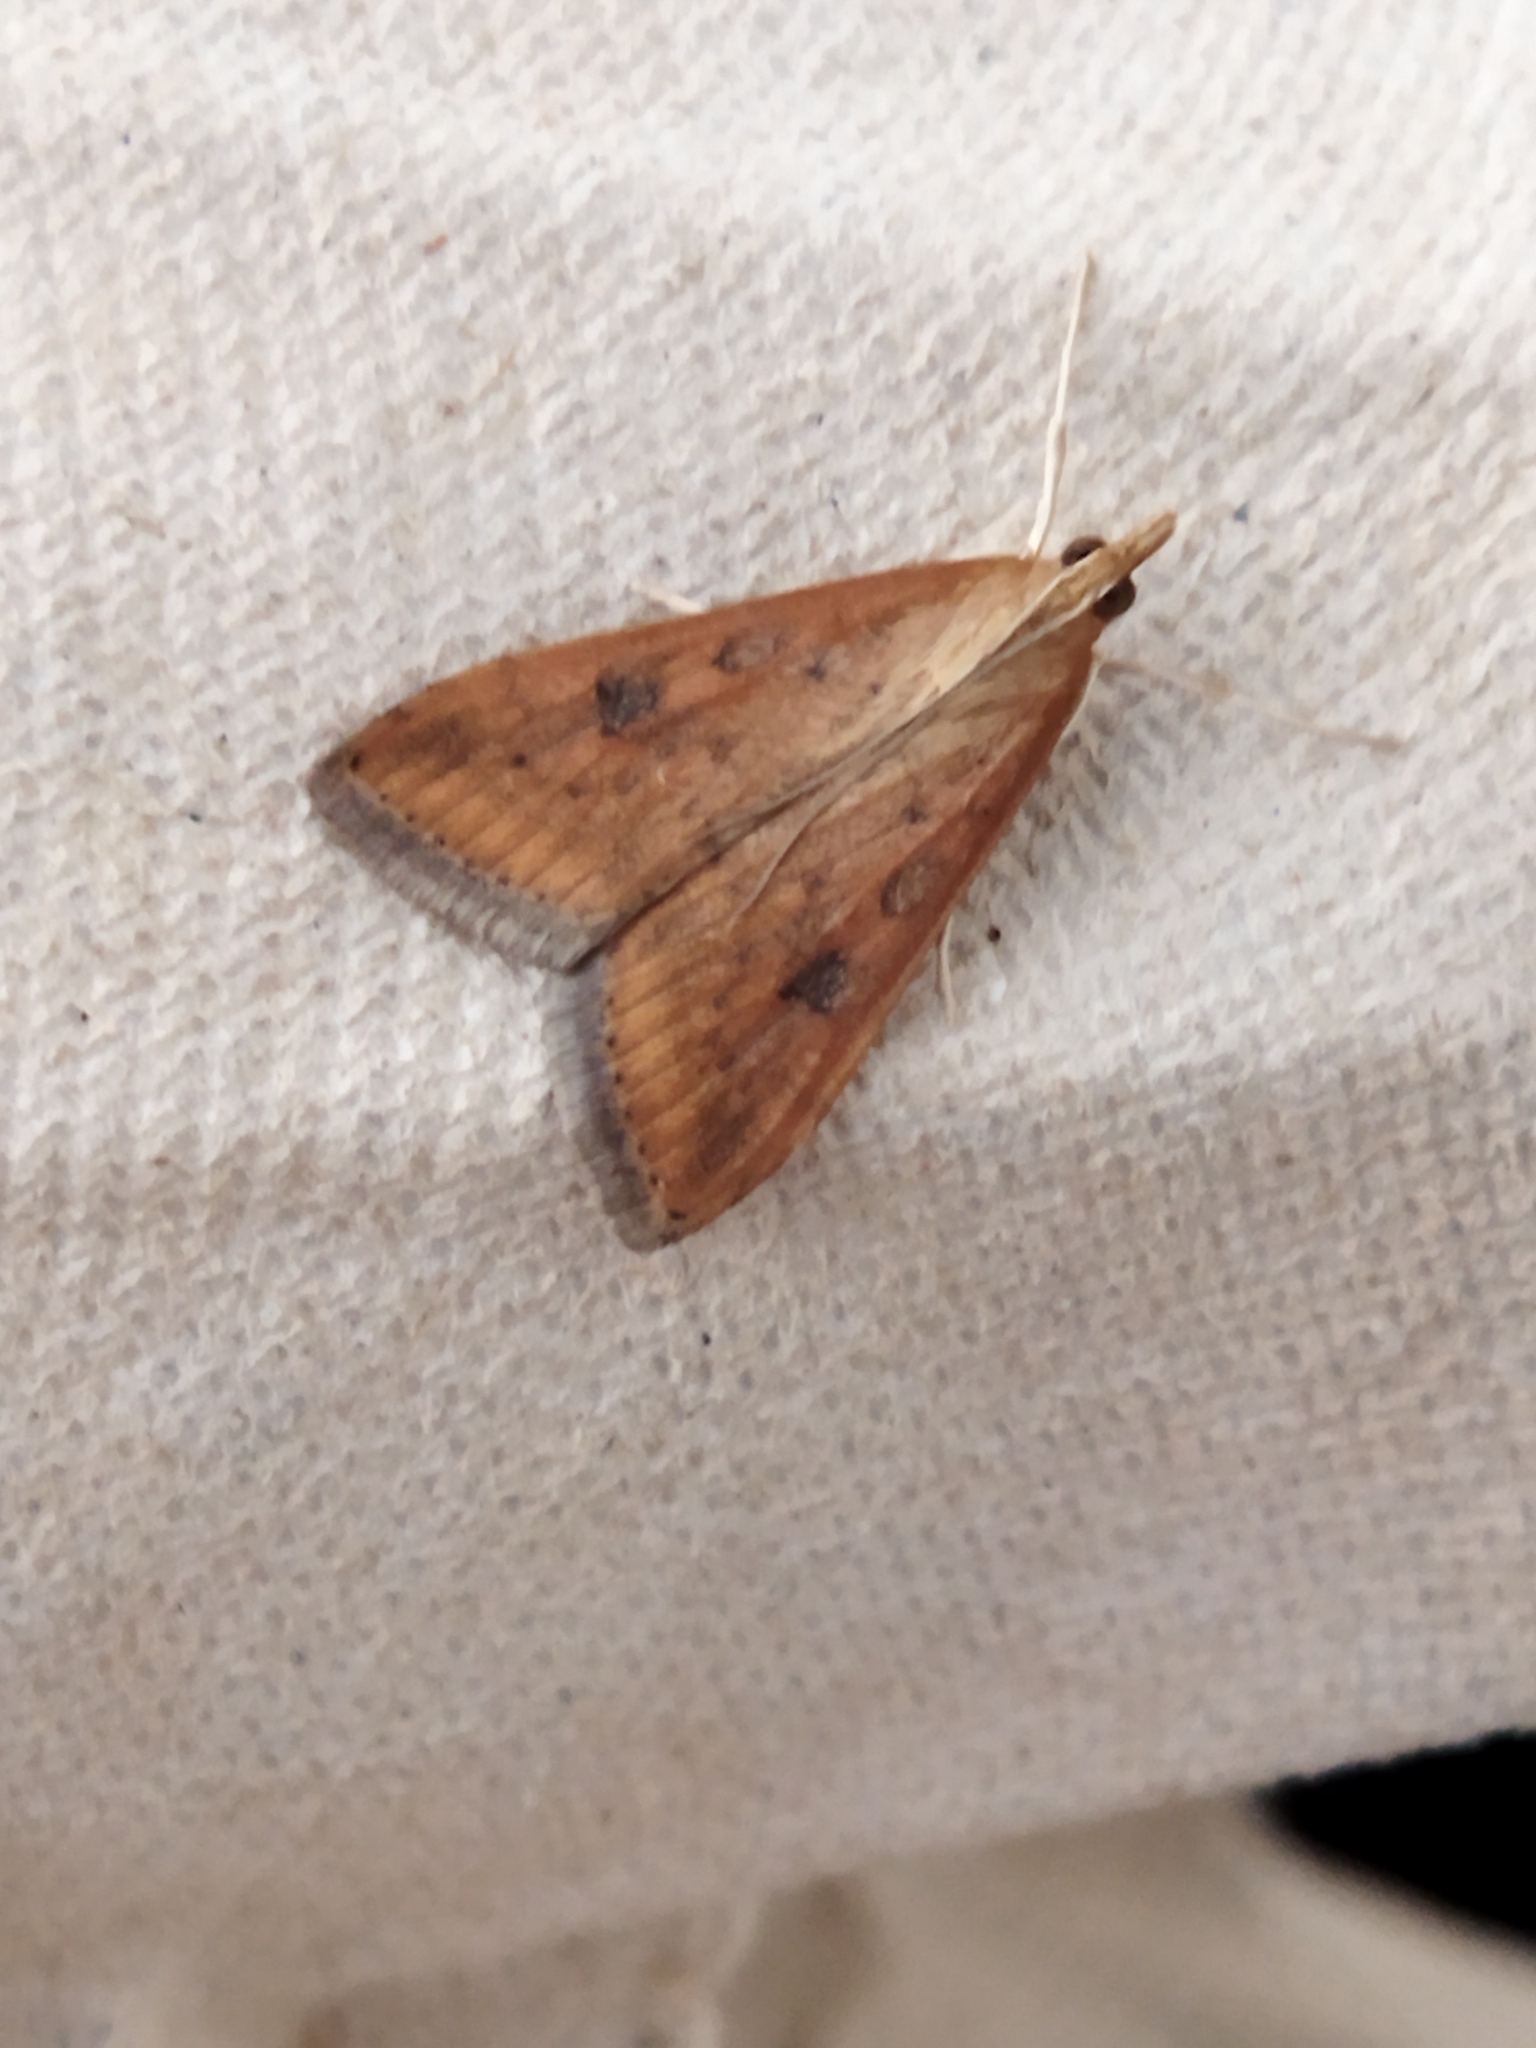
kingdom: Animalia
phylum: Arthropoda
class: Insecta
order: Lepidoptera
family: Crambidae
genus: Udea
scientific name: Udea ferrugalis
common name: Rusty dot
